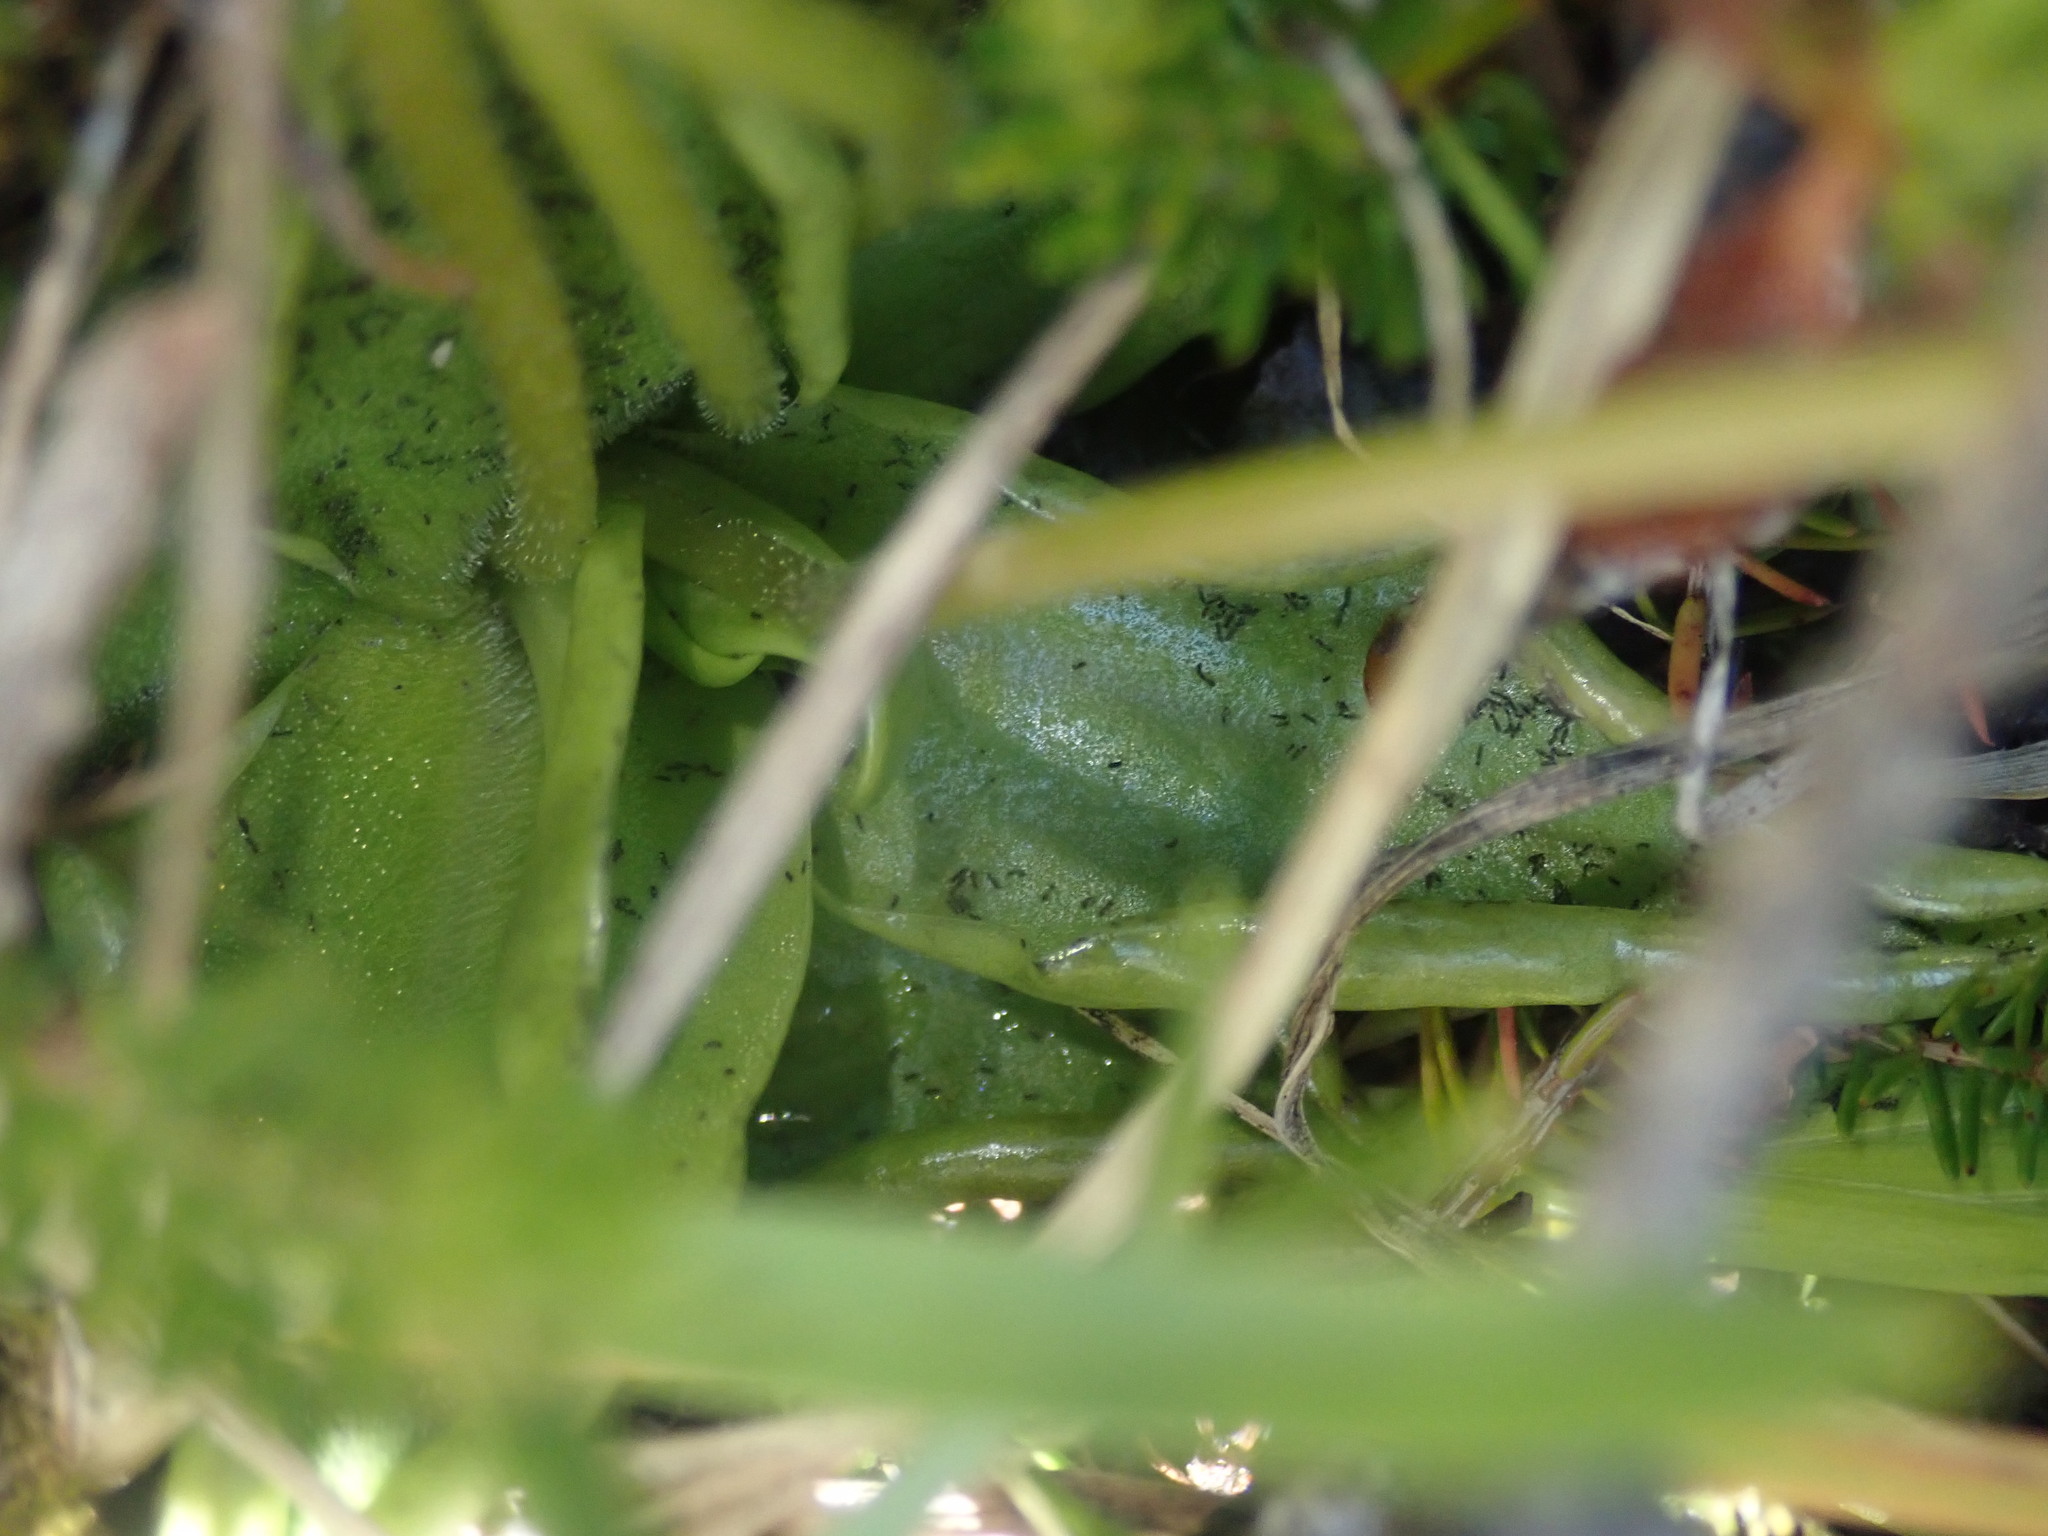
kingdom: Plantae
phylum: Tracheophyta
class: Magnoliopsida
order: Lamiales
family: Lentibulariaceae
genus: Pinguicula
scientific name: Pinguicula alpina
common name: Alpine butterwort
